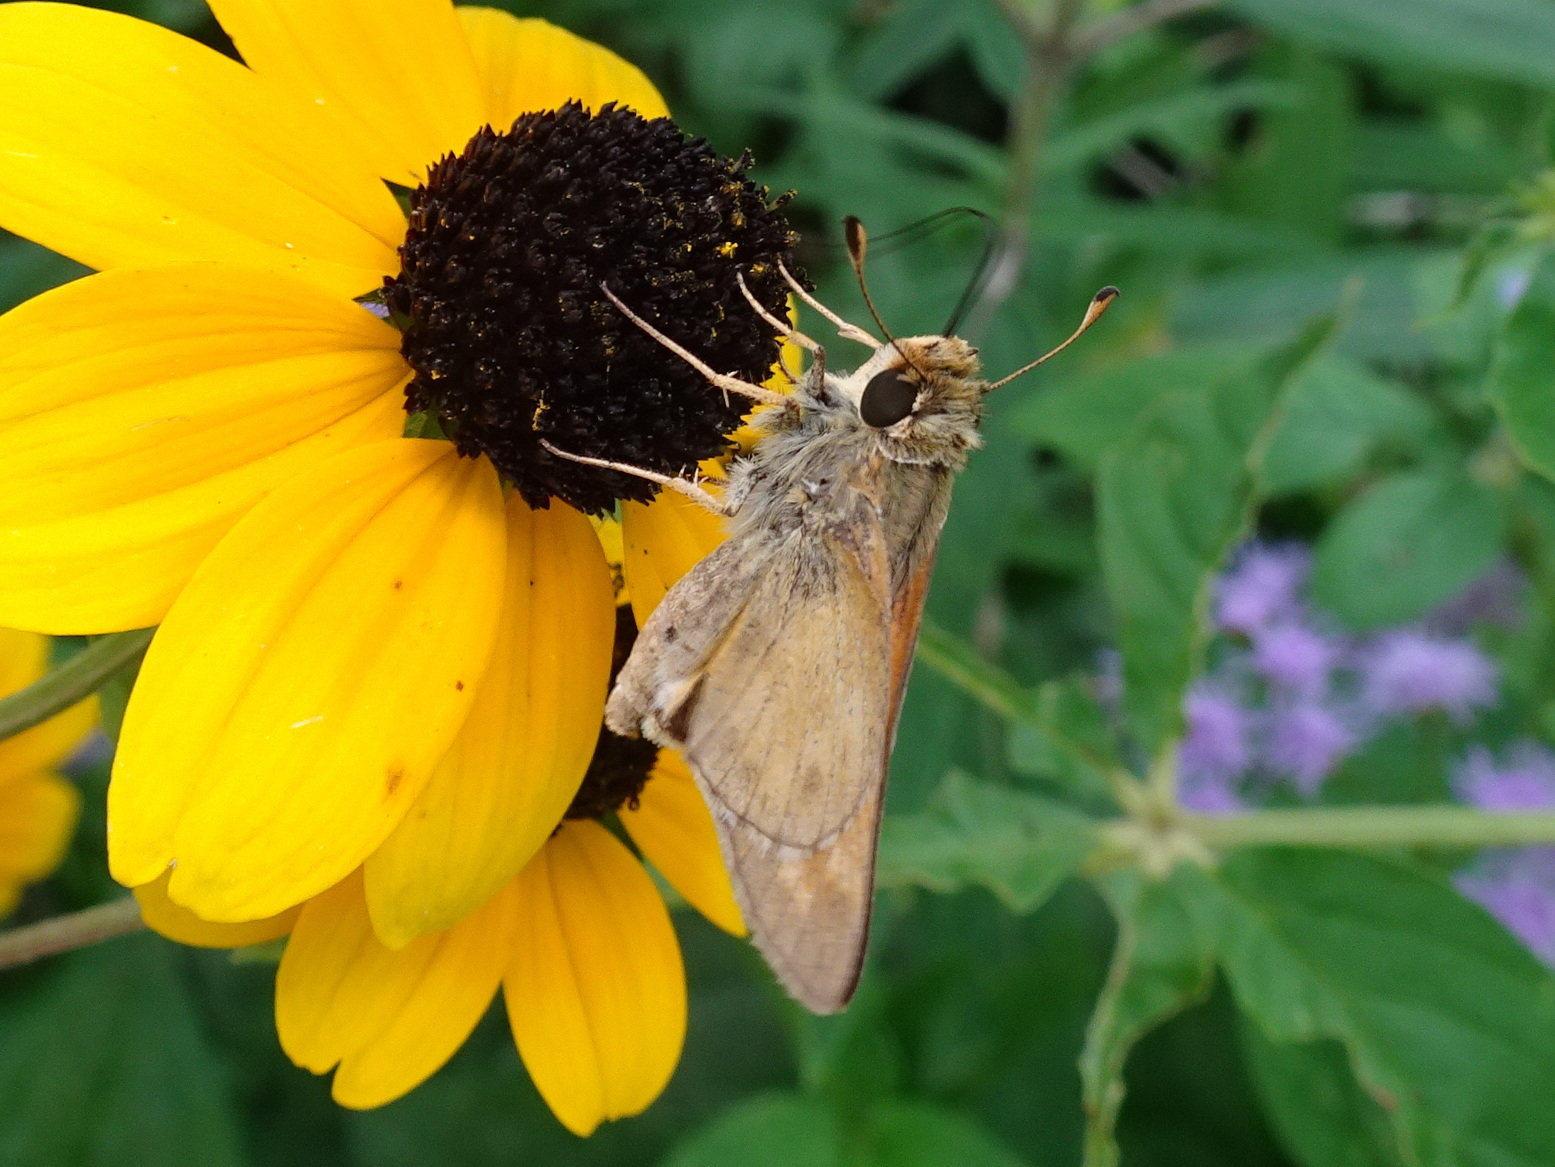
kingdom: Animalia
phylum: Arthropoda
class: Insecta
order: Lepidoptera
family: Hesperiidae
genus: Atalopedes
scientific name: Atalopedes
